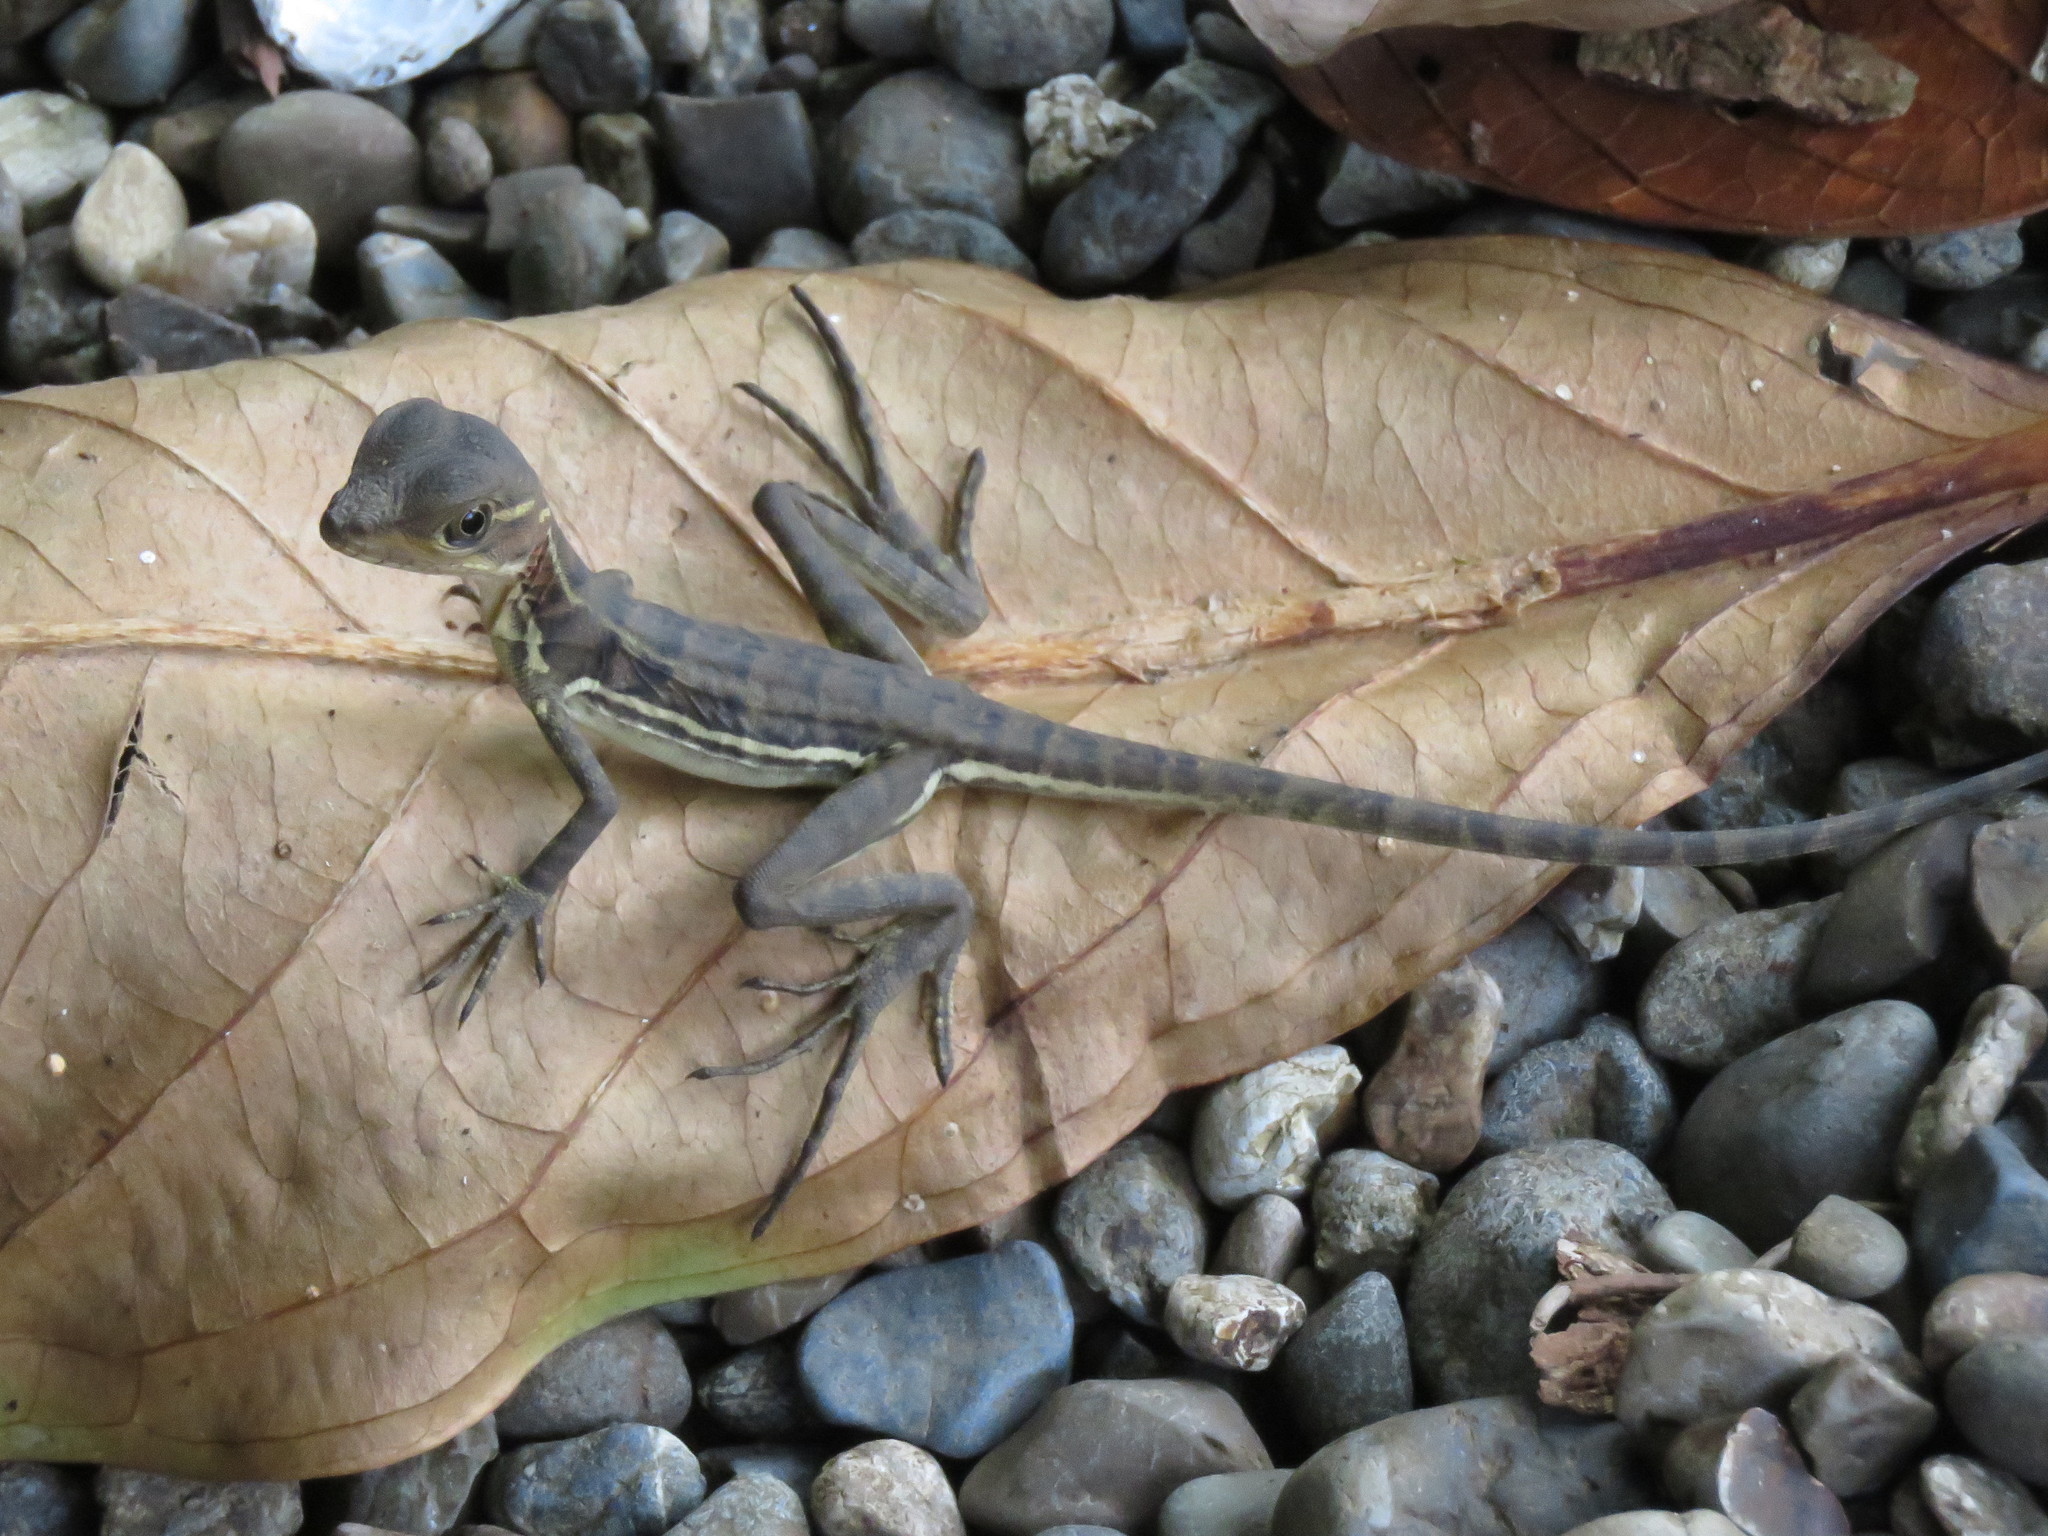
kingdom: Animalia
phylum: Chordata
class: Squamata
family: Corytophanidae
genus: Basiliscus
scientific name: Basiliscus galeritus
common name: Western basilisk
